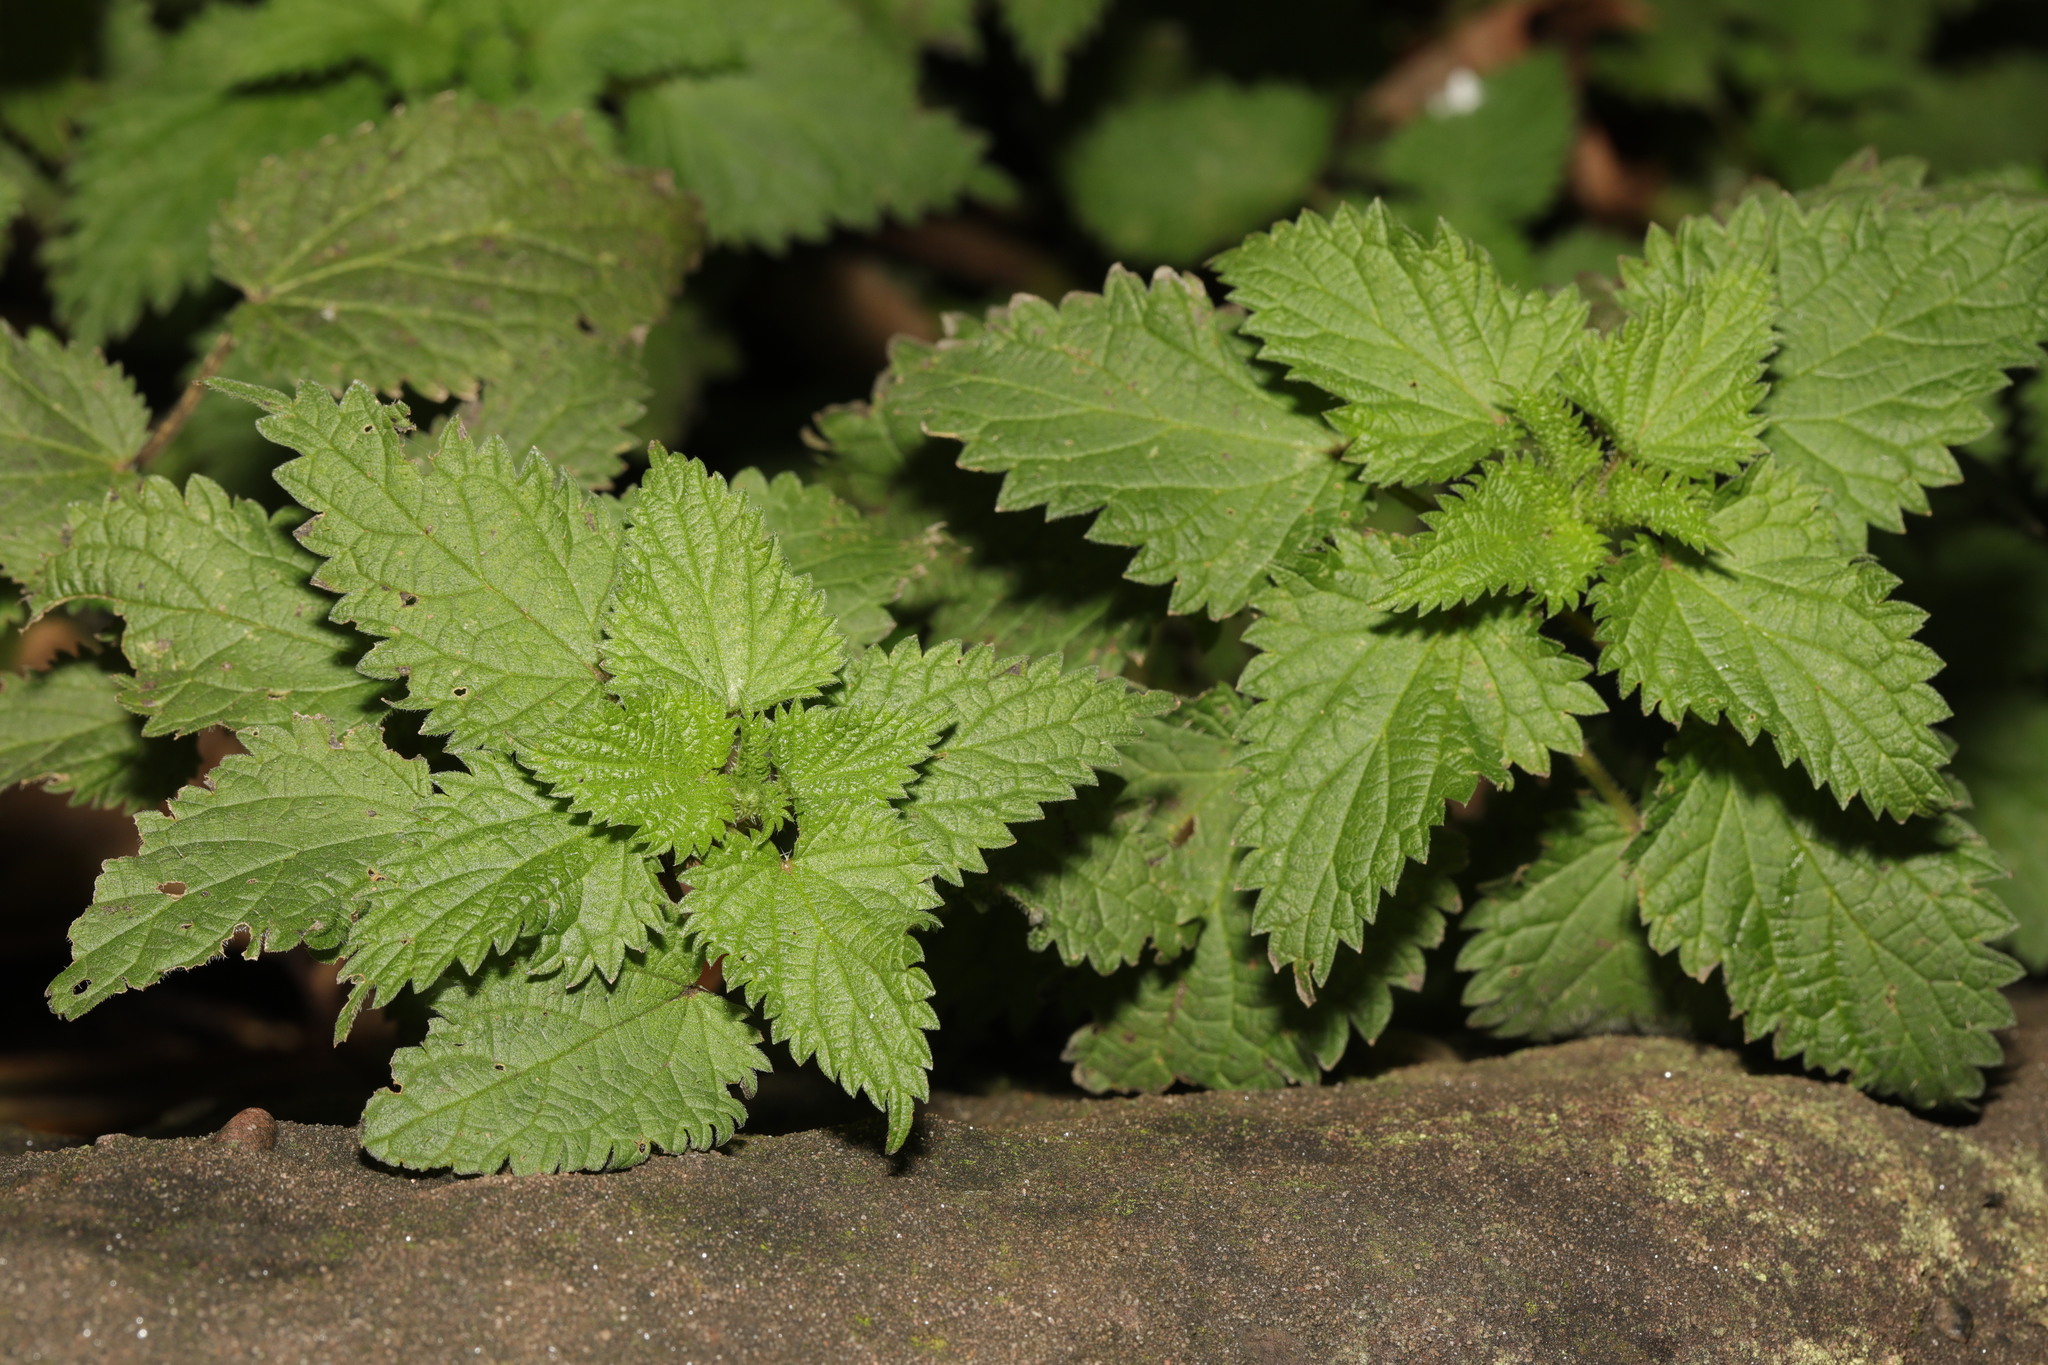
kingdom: Plantae
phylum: Tracheophyta
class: Magnoliopsida
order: Rosales
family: Urticaceae
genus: Urtica
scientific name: Urtica dioica
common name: Common nettle
